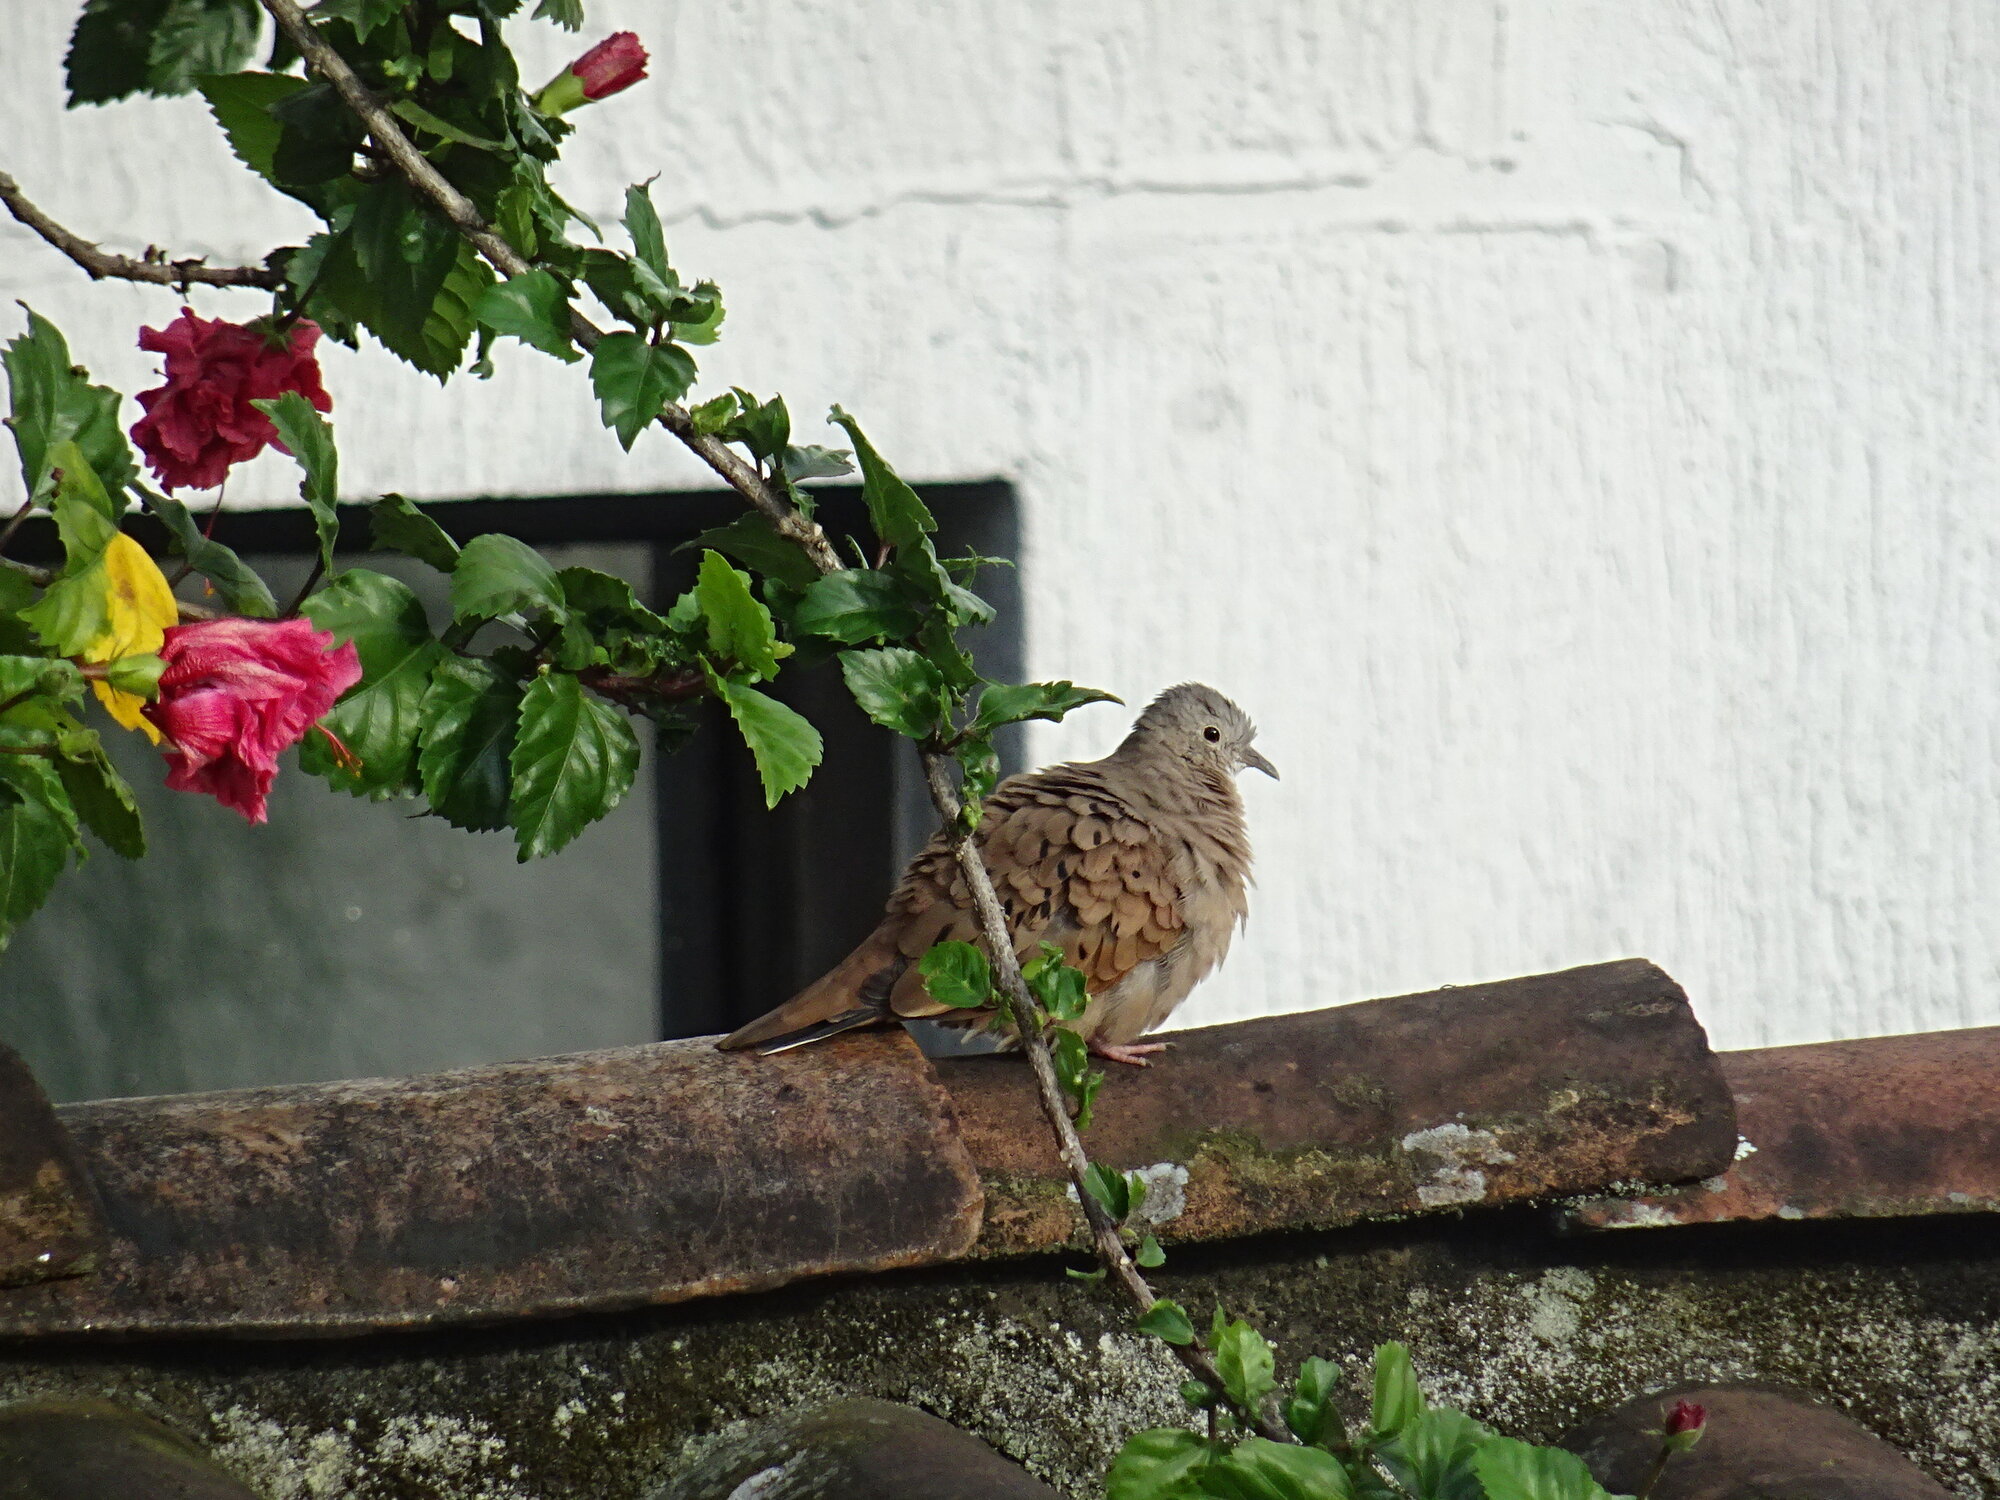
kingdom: Animalia
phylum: Chordata
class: Aves
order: Columbiformes
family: Columbidae
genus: Columbina
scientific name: Columbina talpacoti
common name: Ruddy ground dove
